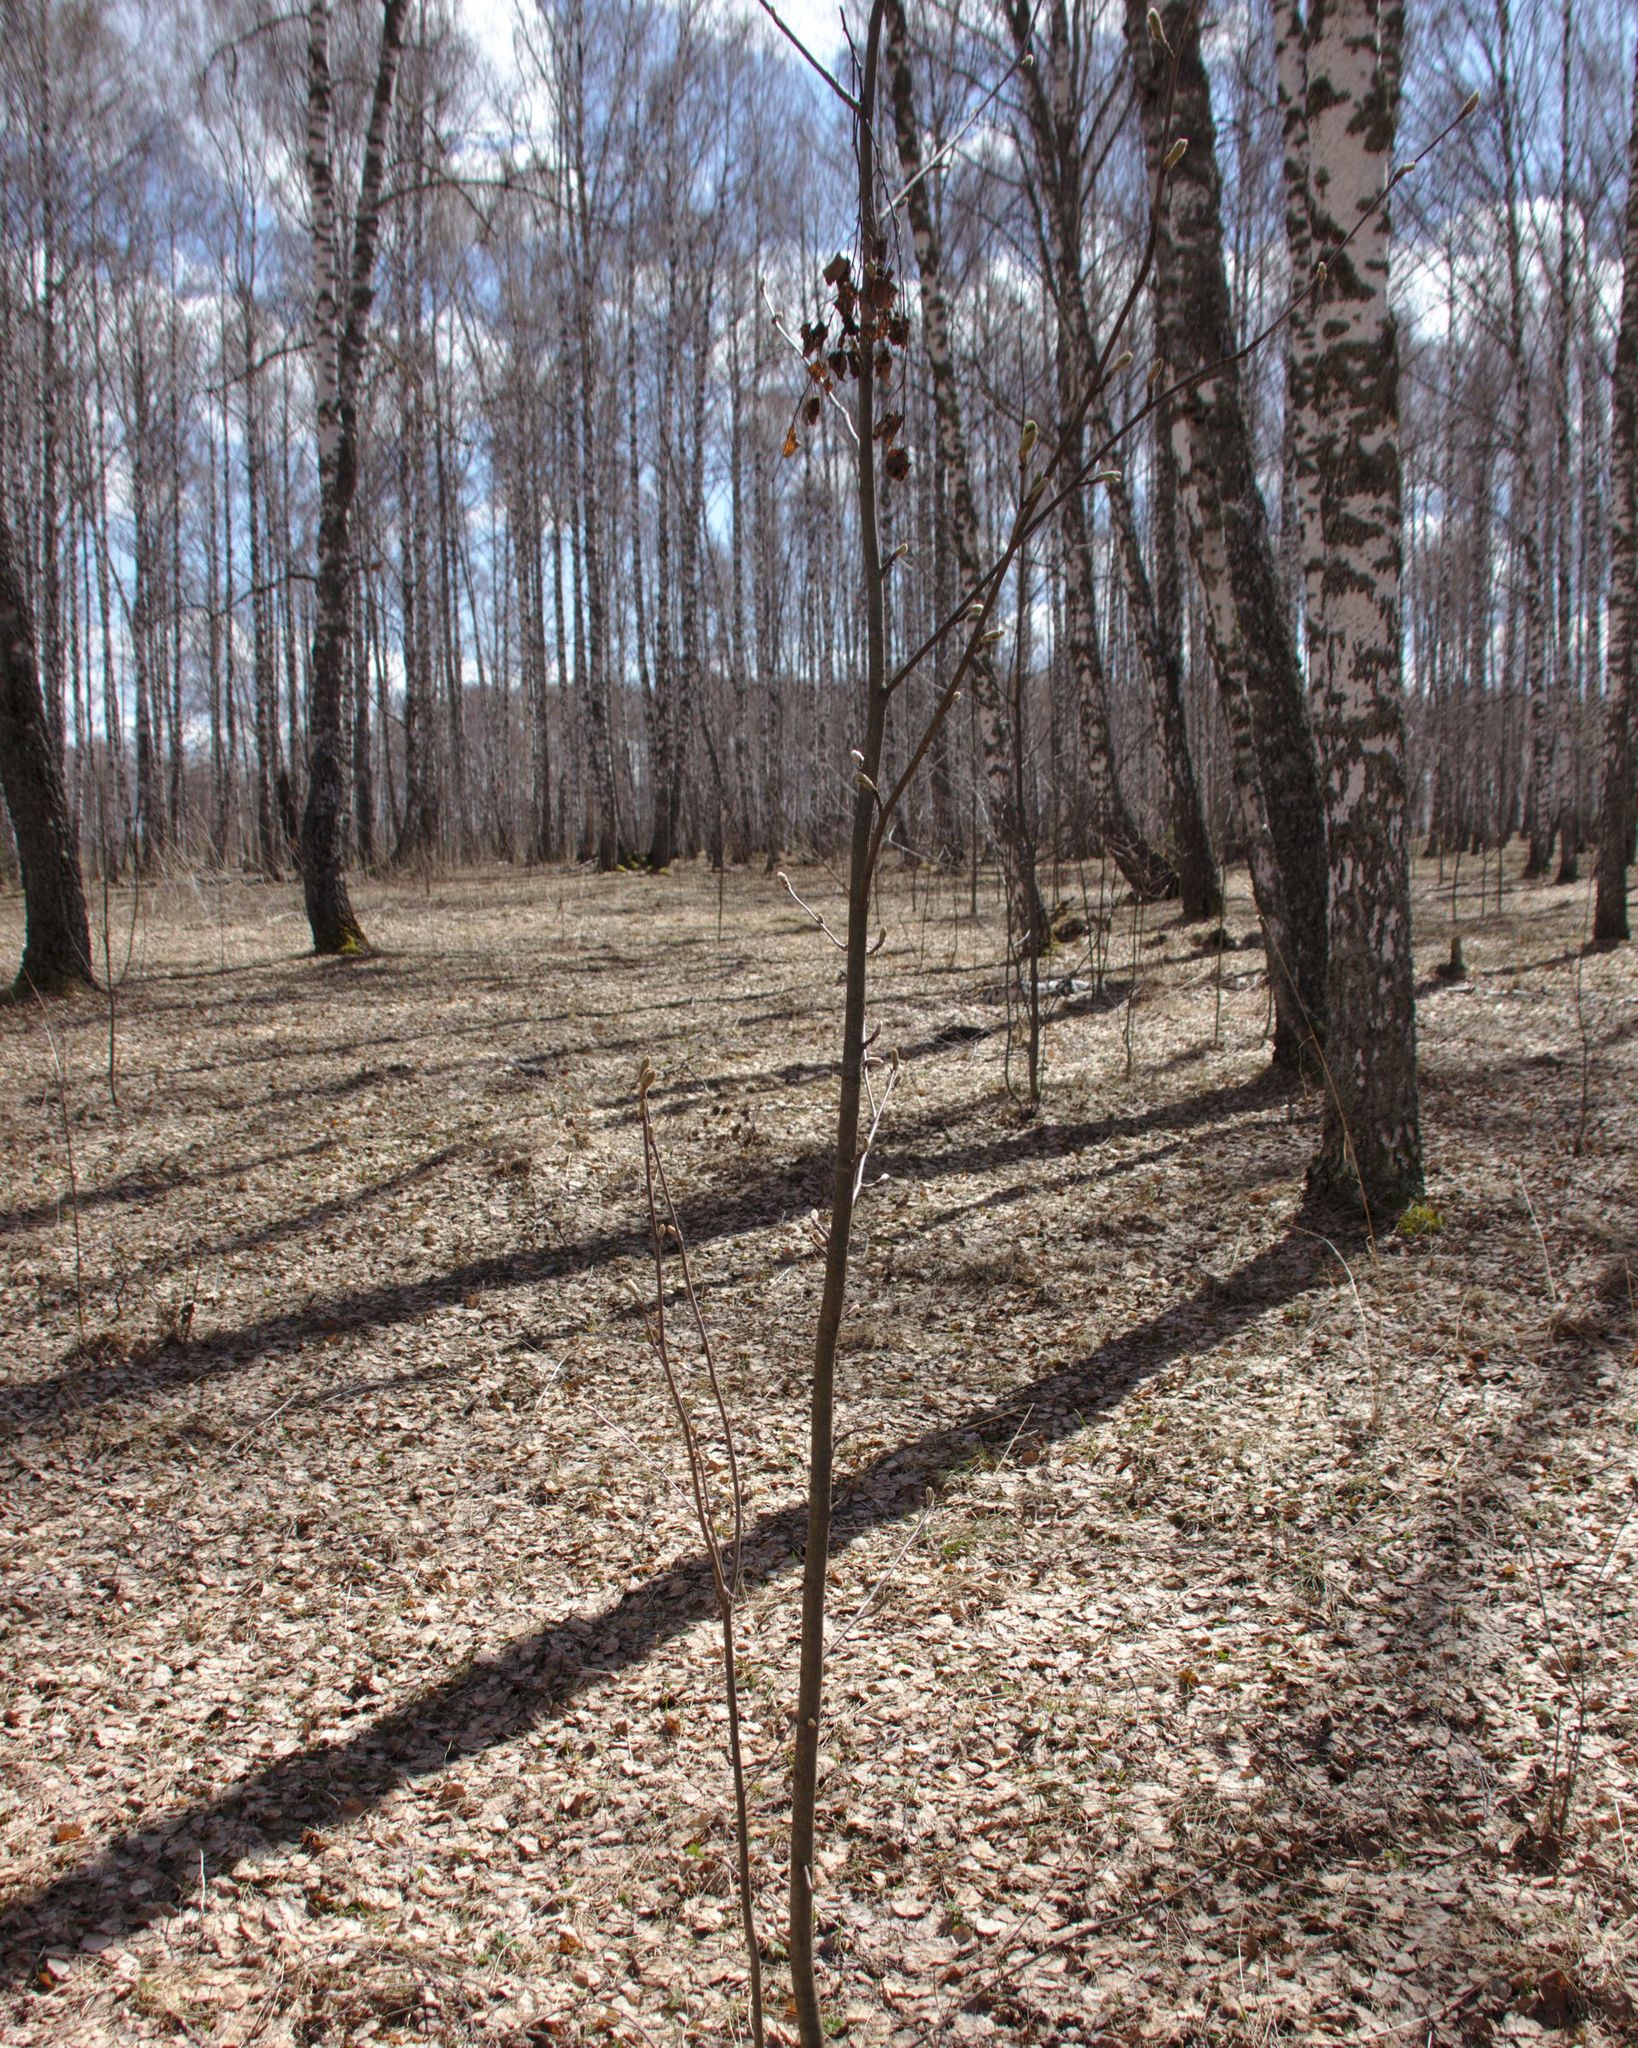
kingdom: Plantae
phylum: Tracheophyta
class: Magnoliopsida
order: Rosales
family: Rosaceae
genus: Sorbus
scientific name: Sorbus aucuparia
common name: Rowan
